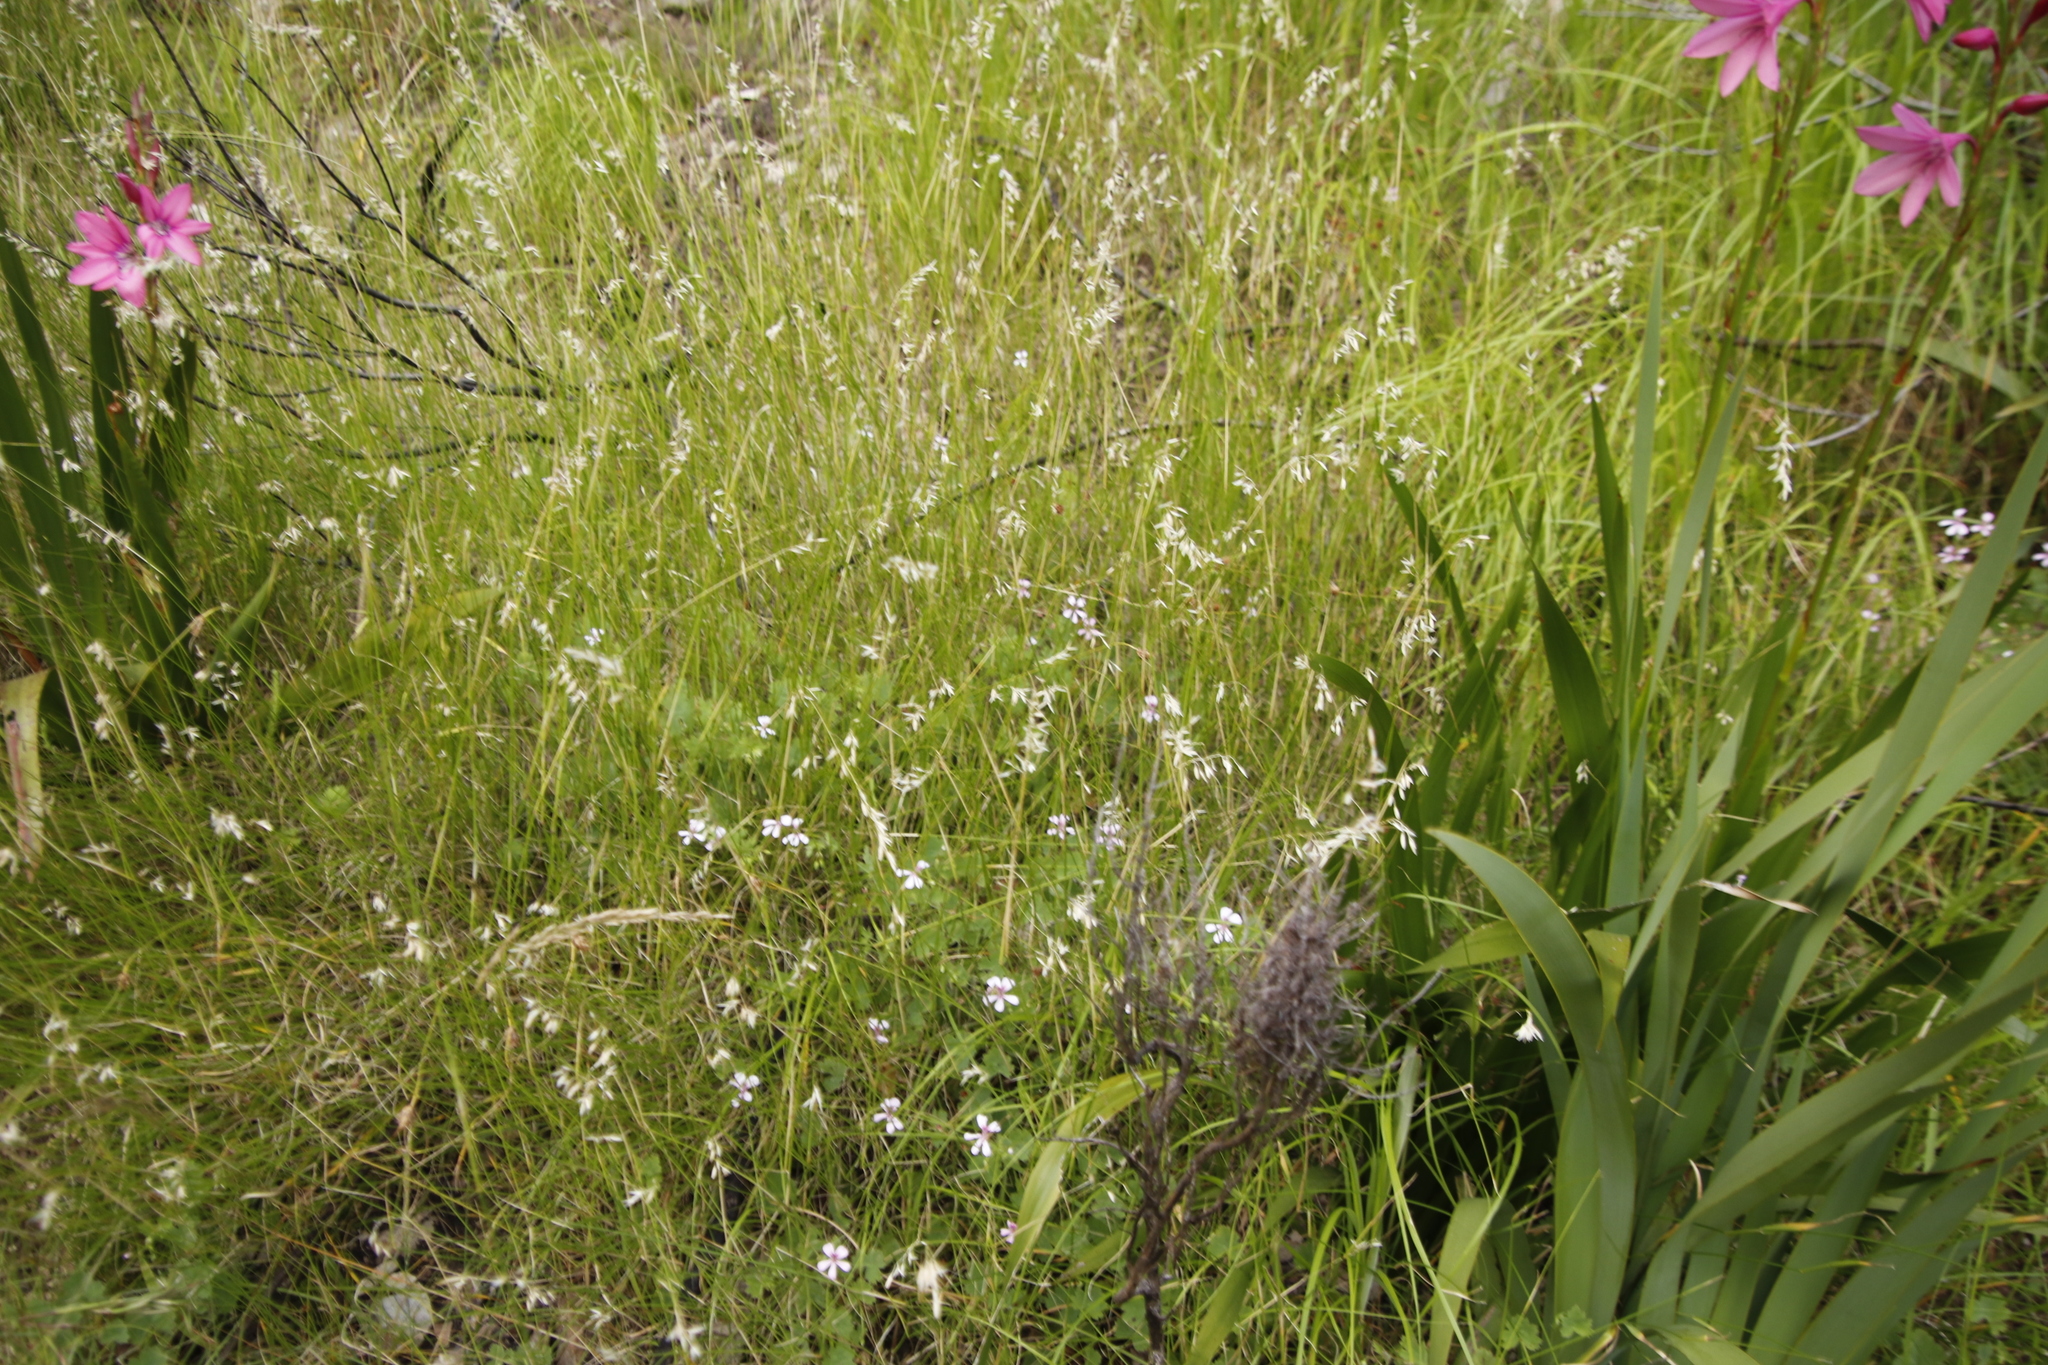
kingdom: Plantae
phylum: Tracheophyta
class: Magnoliopsida
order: Geraniales
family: Geraniaceae
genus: Pelargonium
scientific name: Pelargonium patulum
